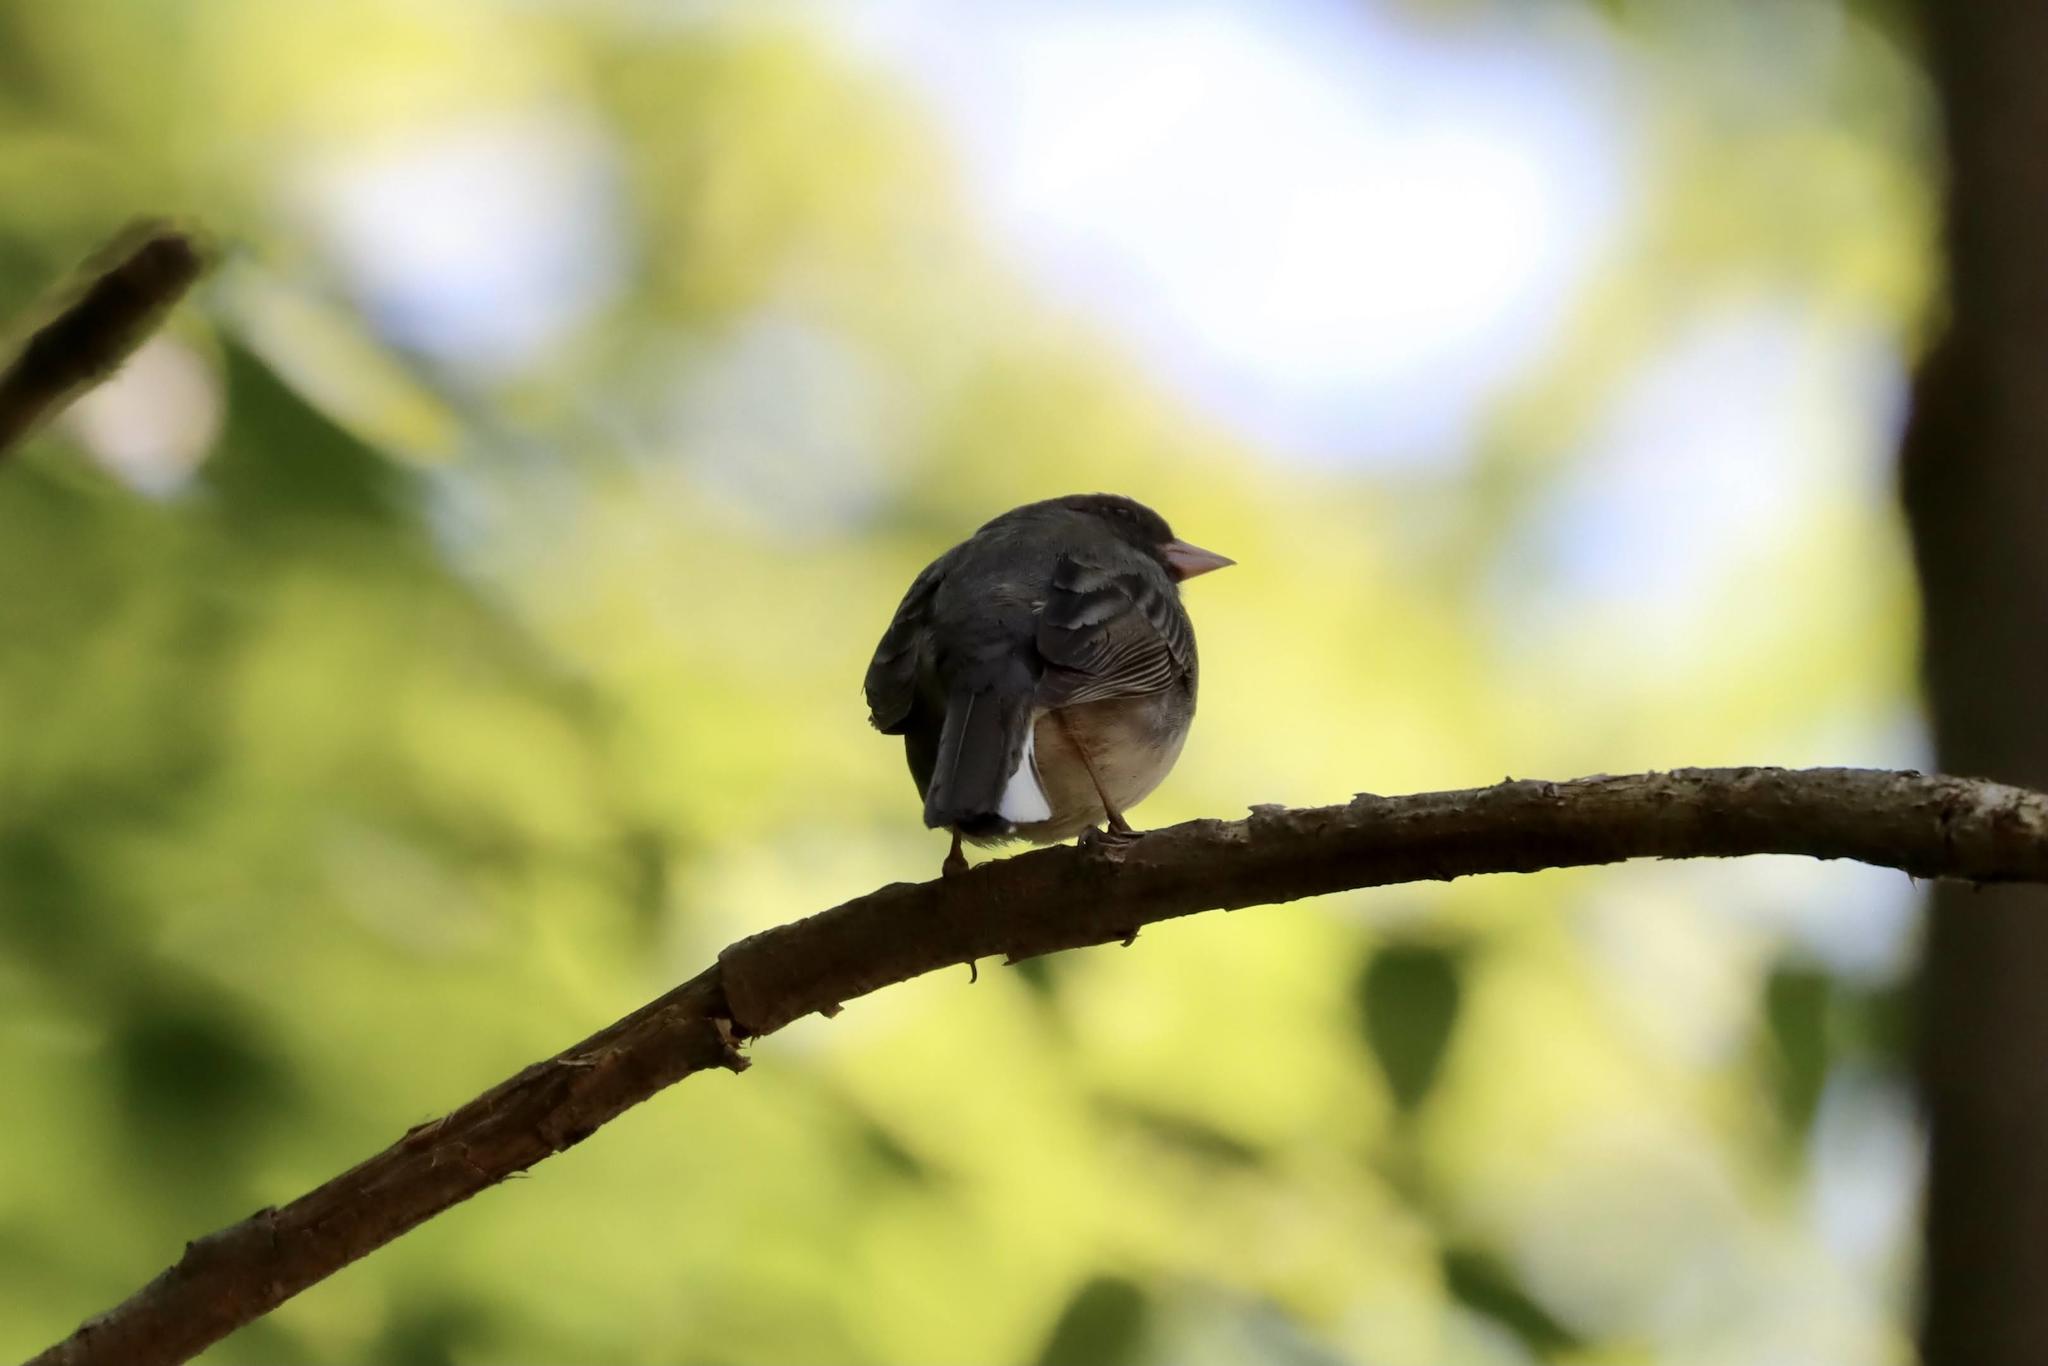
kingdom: Animalia
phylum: Chordata
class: Aves
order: Passeriformes
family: Passerellidae
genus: Junco
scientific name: Junco hyemalis
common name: Dark-eyed junco
